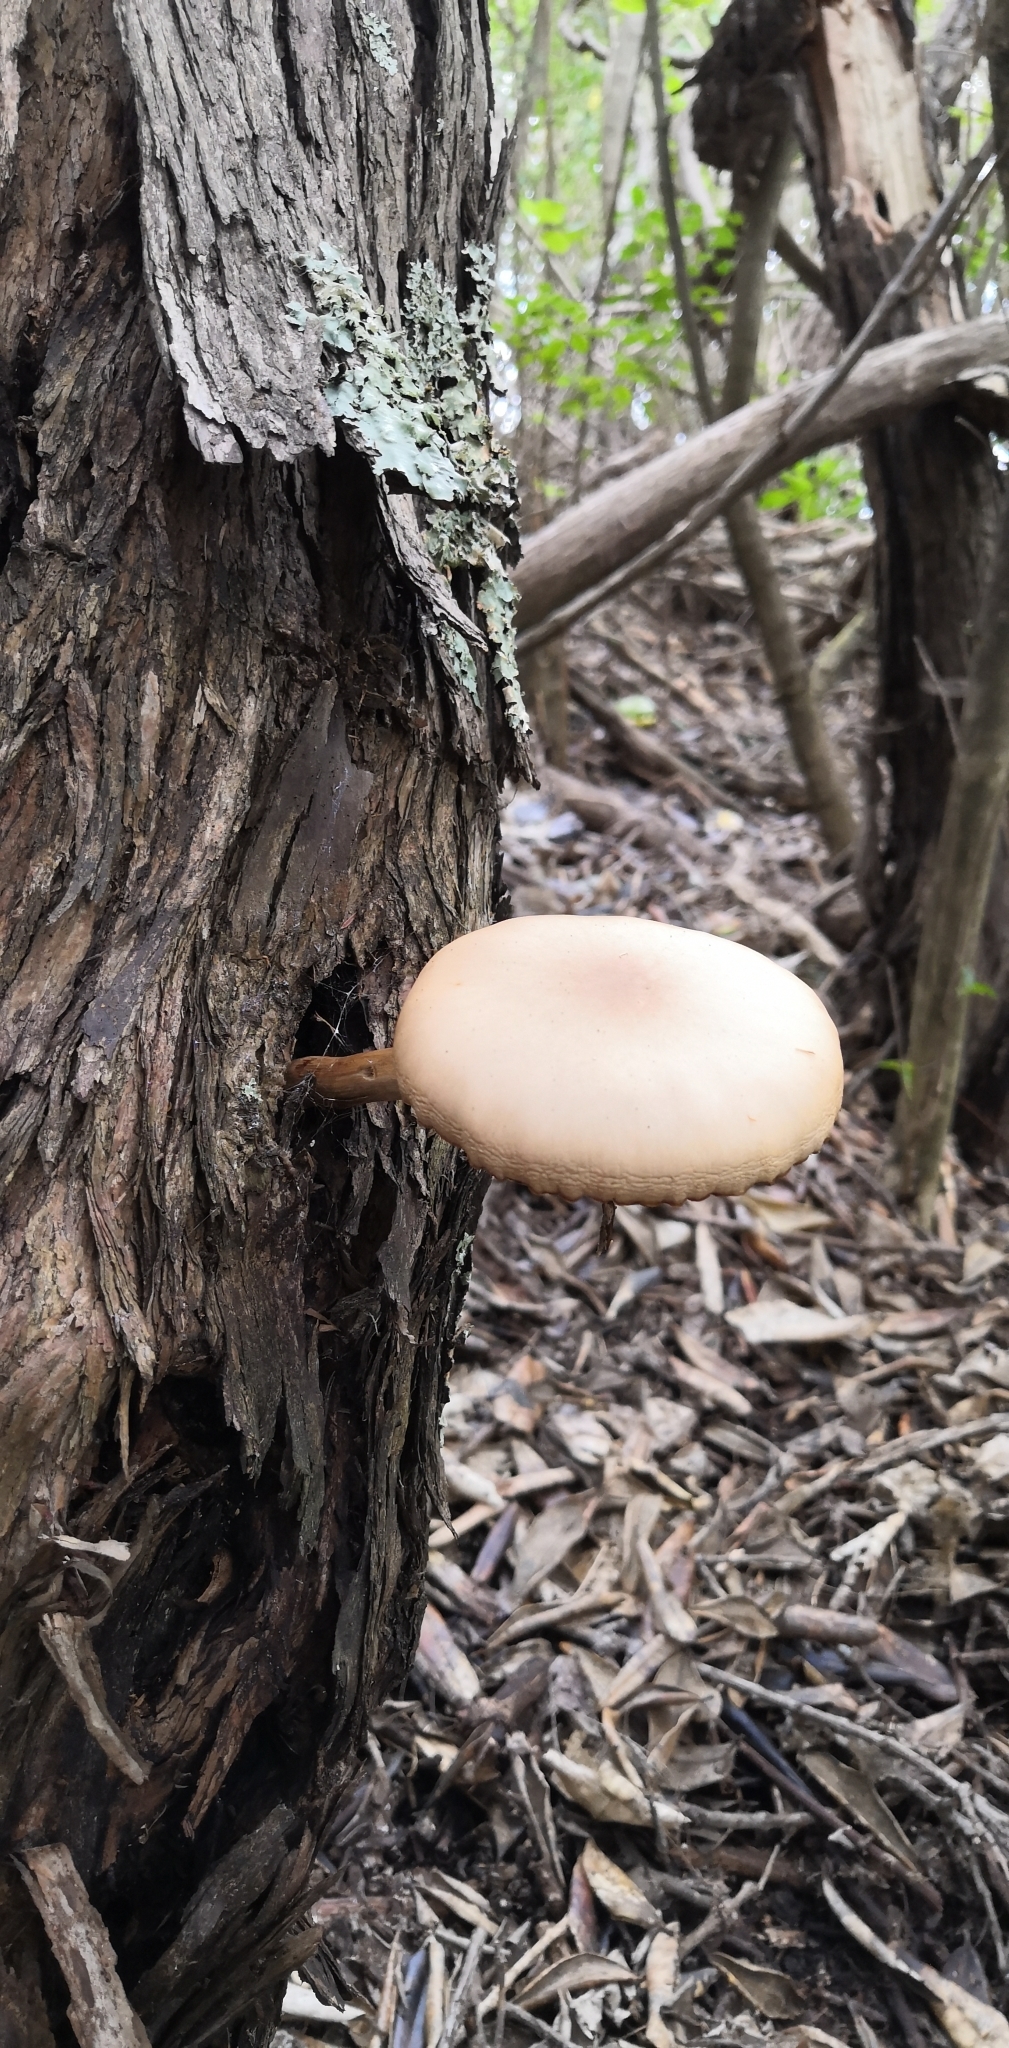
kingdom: Fungi
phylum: Basidiomycota
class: Agaricomycetes
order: Agaricales
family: Tubariaceae
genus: Cyclocybe
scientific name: Cyclocybe parasitica
